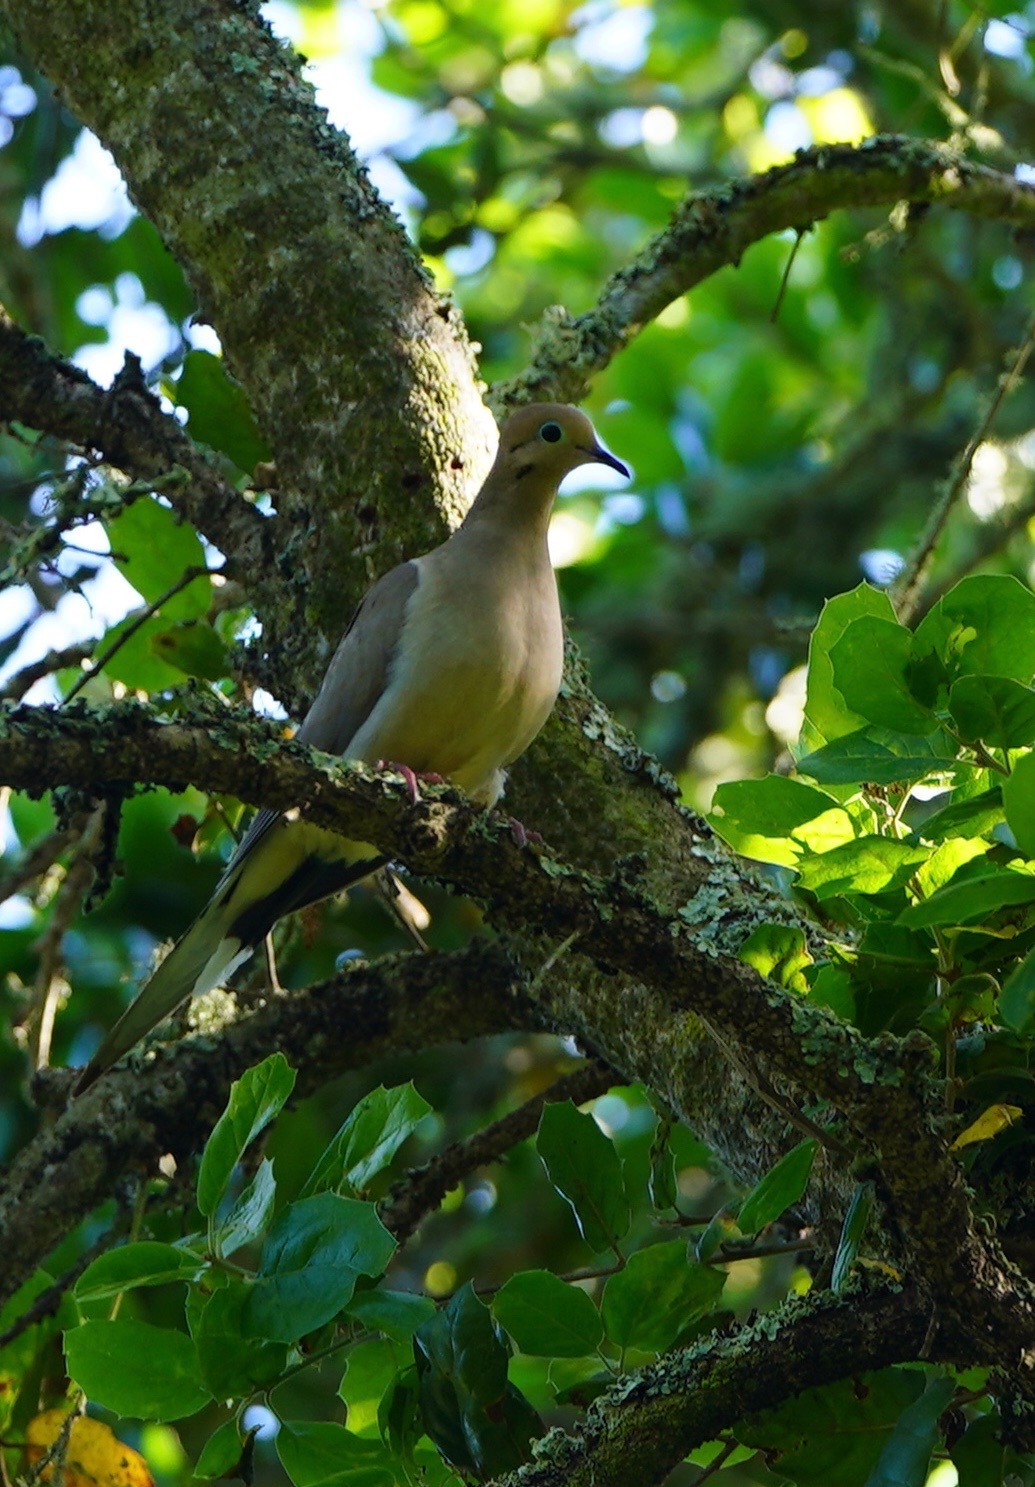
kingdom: Animalia
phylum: Chordata
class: Aves
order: Columbiformes
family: Columbidae
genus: Zenaida
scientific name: Zenaida macroura
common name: Mourning dove
